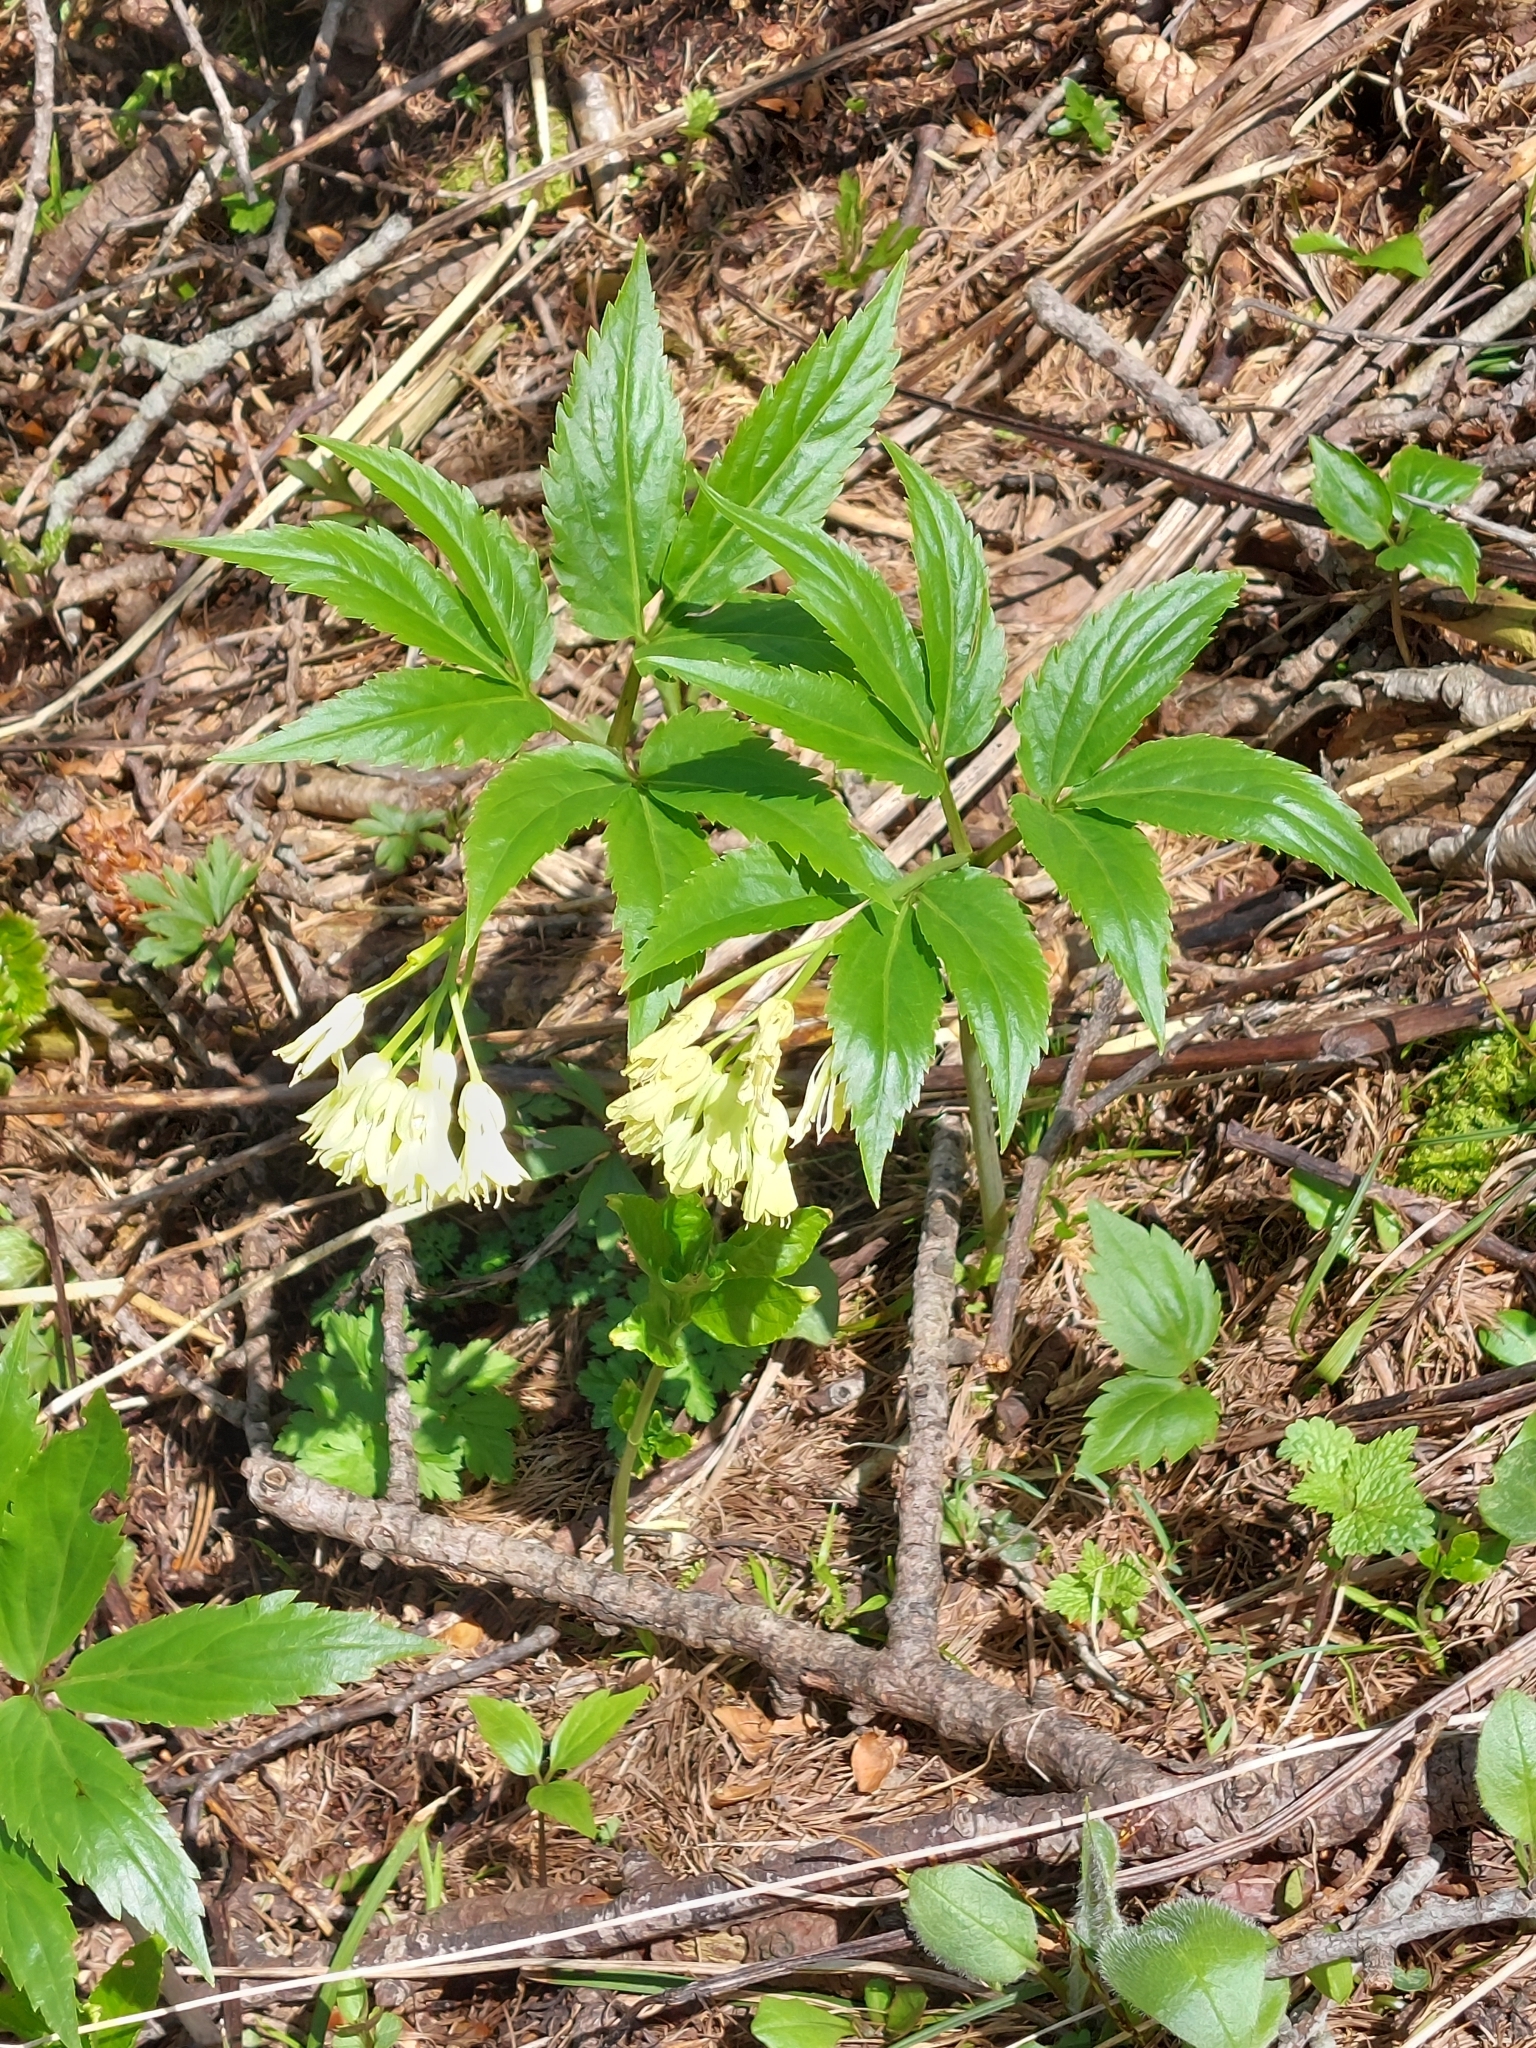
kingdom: Plantae
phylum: Tracheophyta
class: Magnoliopsida
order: Brassicales
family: Brassicaceae
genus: Cardamine
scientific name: Cardamine enneaphyllos
